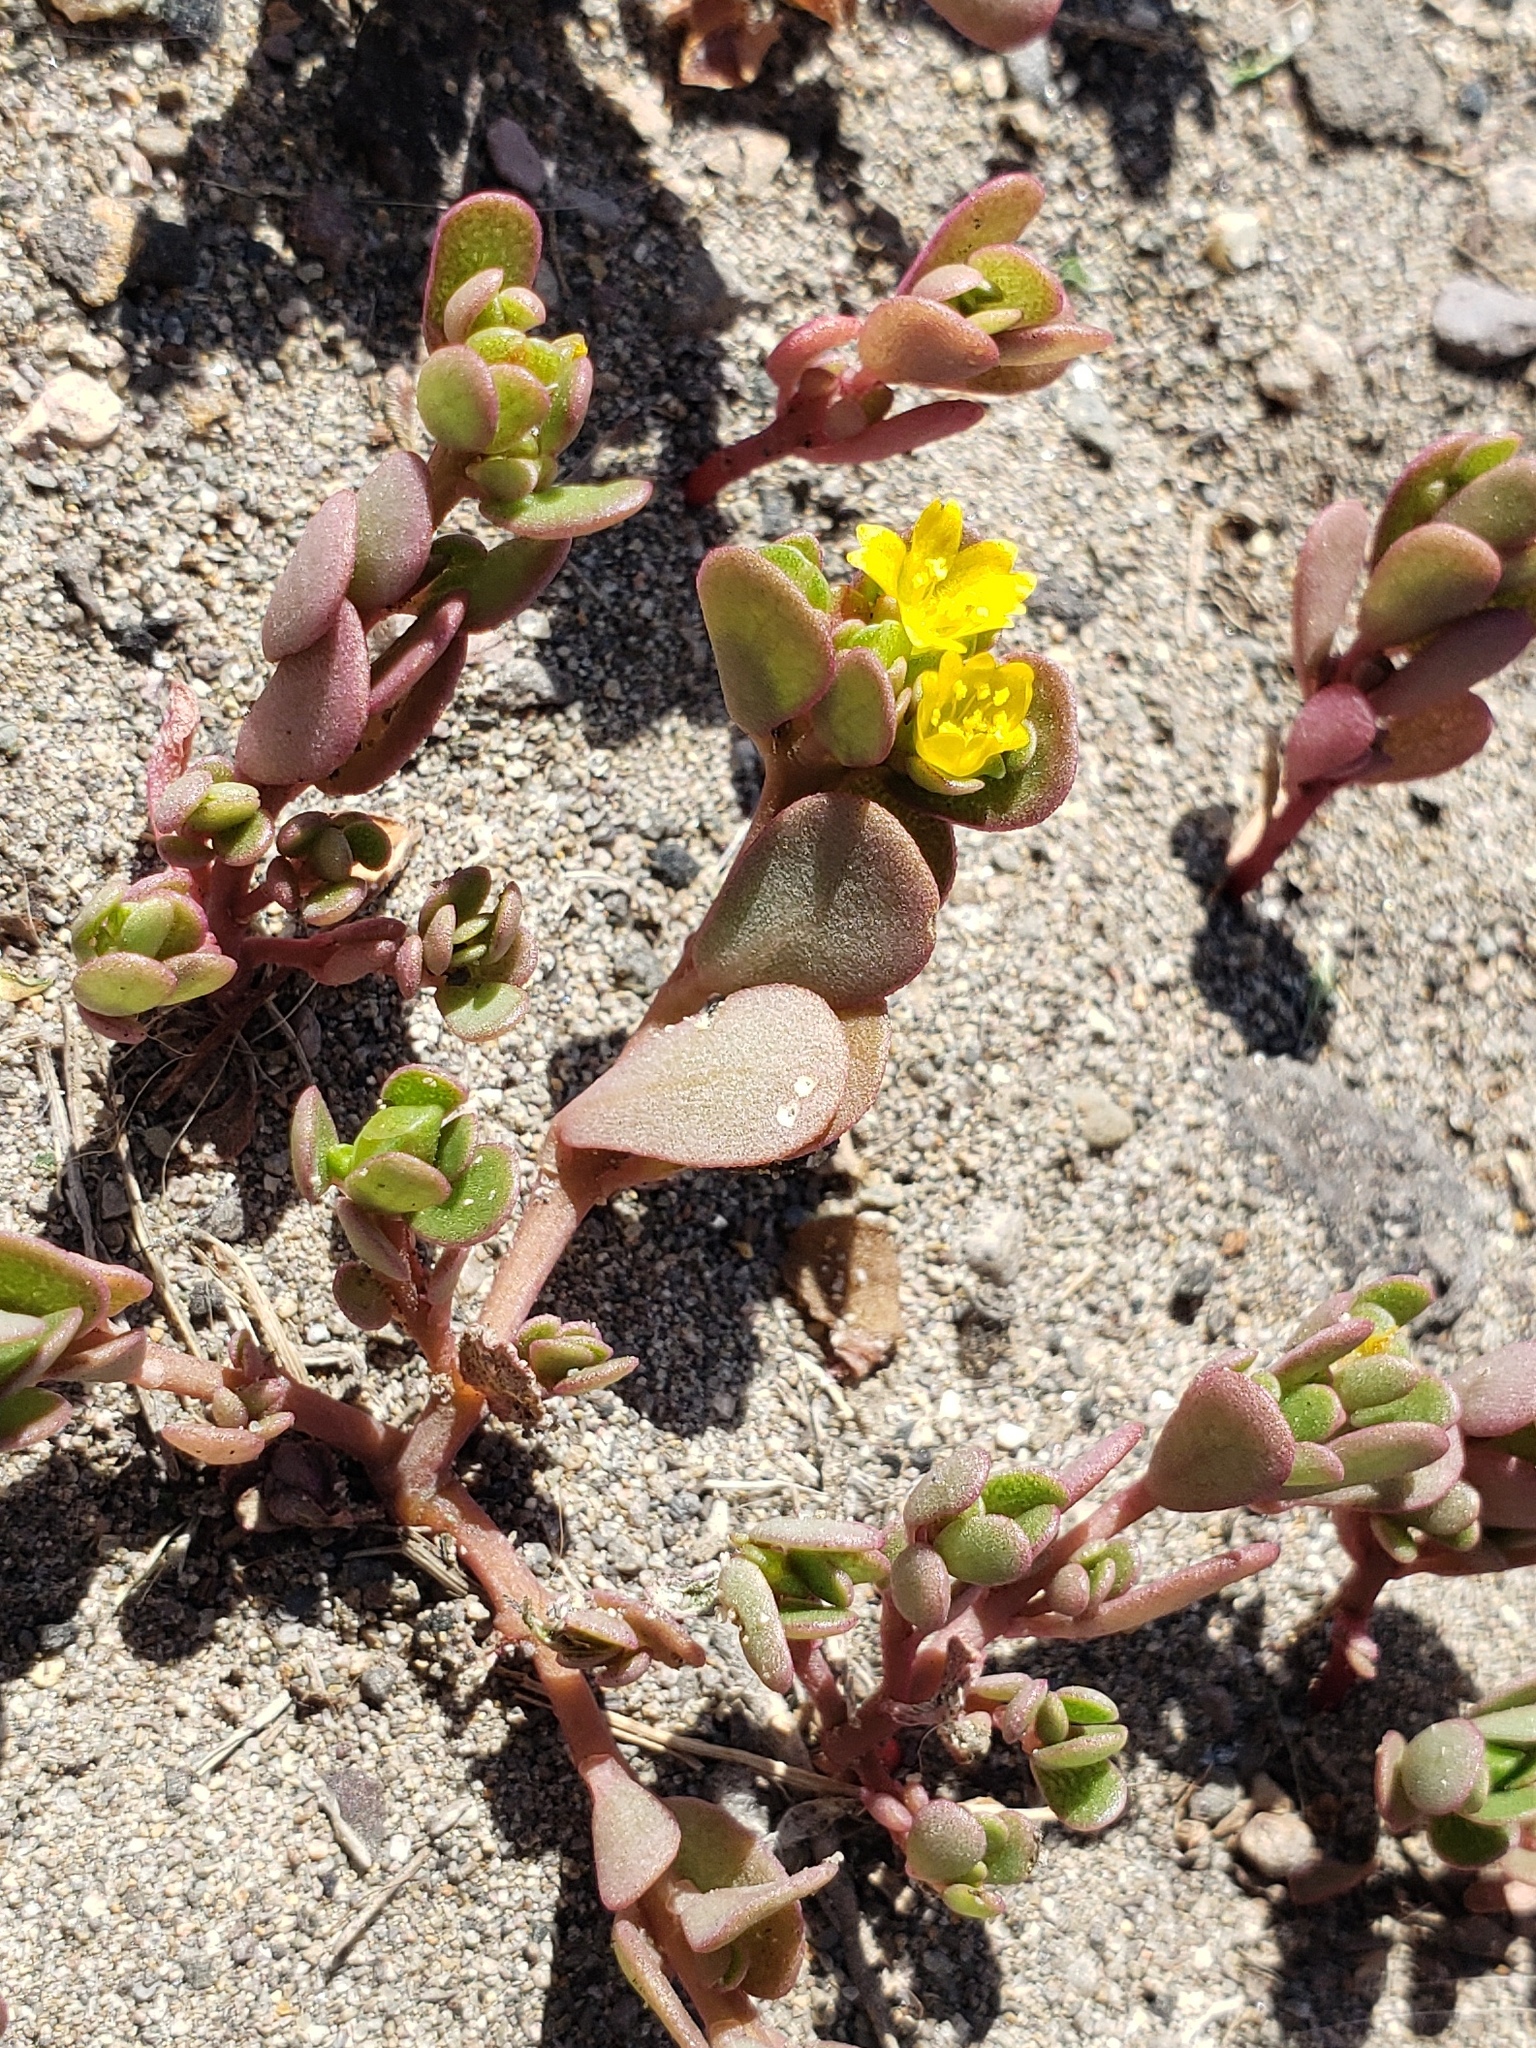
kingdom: Plantae
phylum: Tracheophyta
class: Magnoliopsida
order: Caryophyllales
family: Portulacaceae
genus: Portulaca
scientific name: Portulaca oleracea
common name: Common purslane
